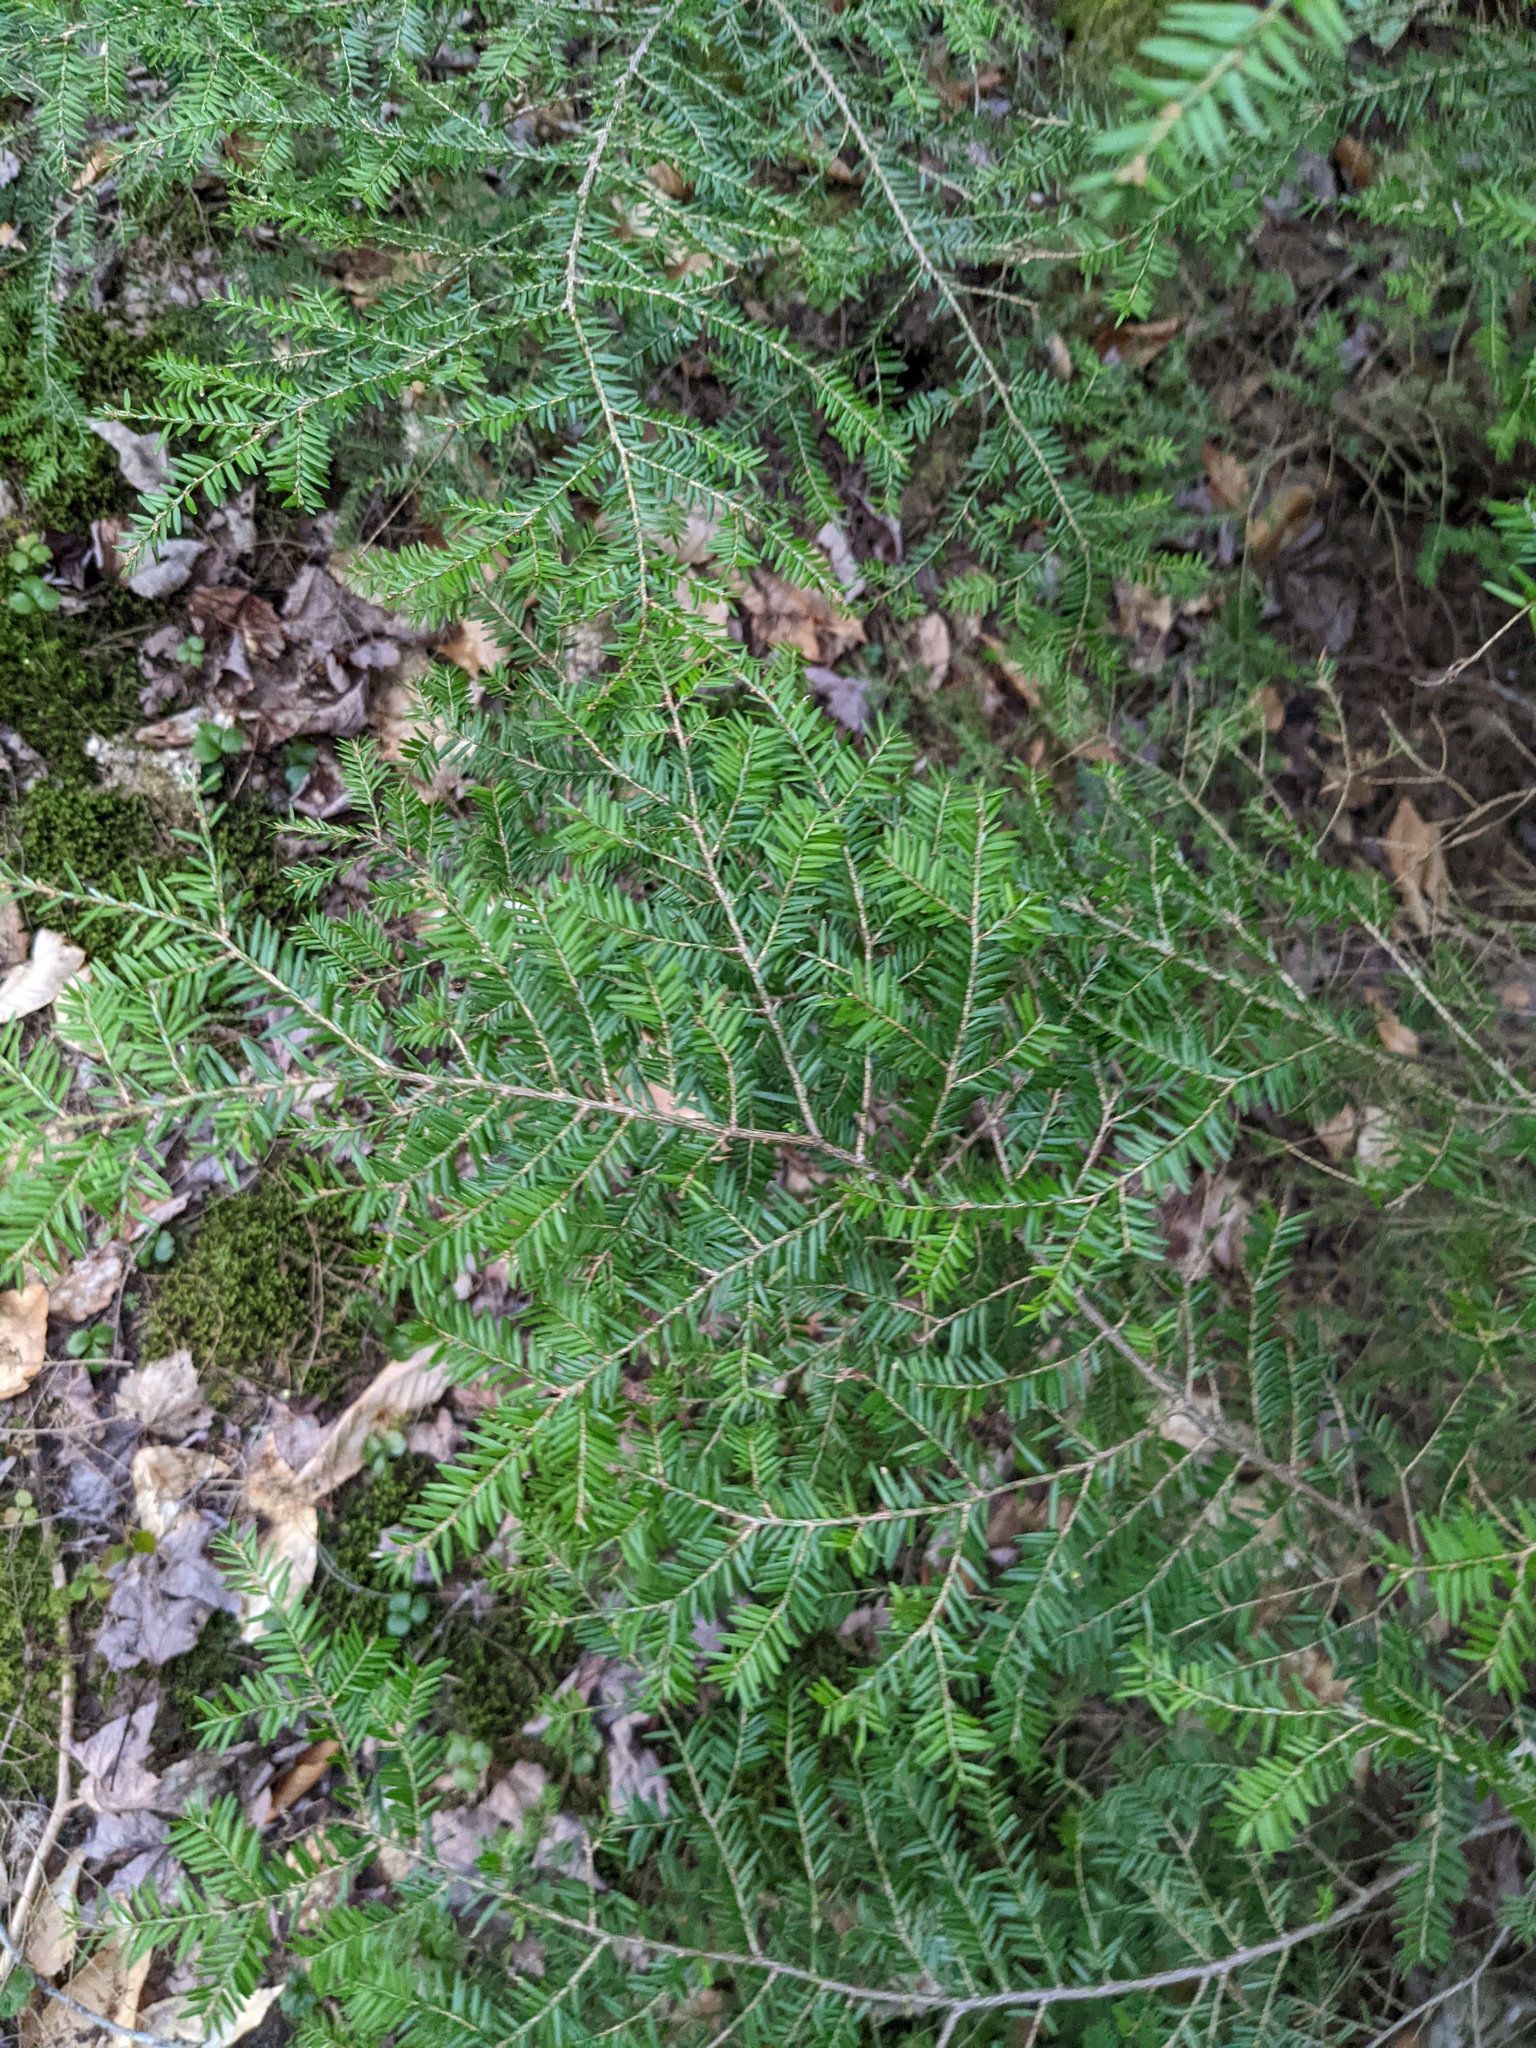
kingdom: Plantae
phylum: Tracheophyta
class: Pinopsida
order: Pinales
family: Pinaceae
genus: Tsuga
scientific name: Tsuga canadensis
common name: Eastern hemlock
